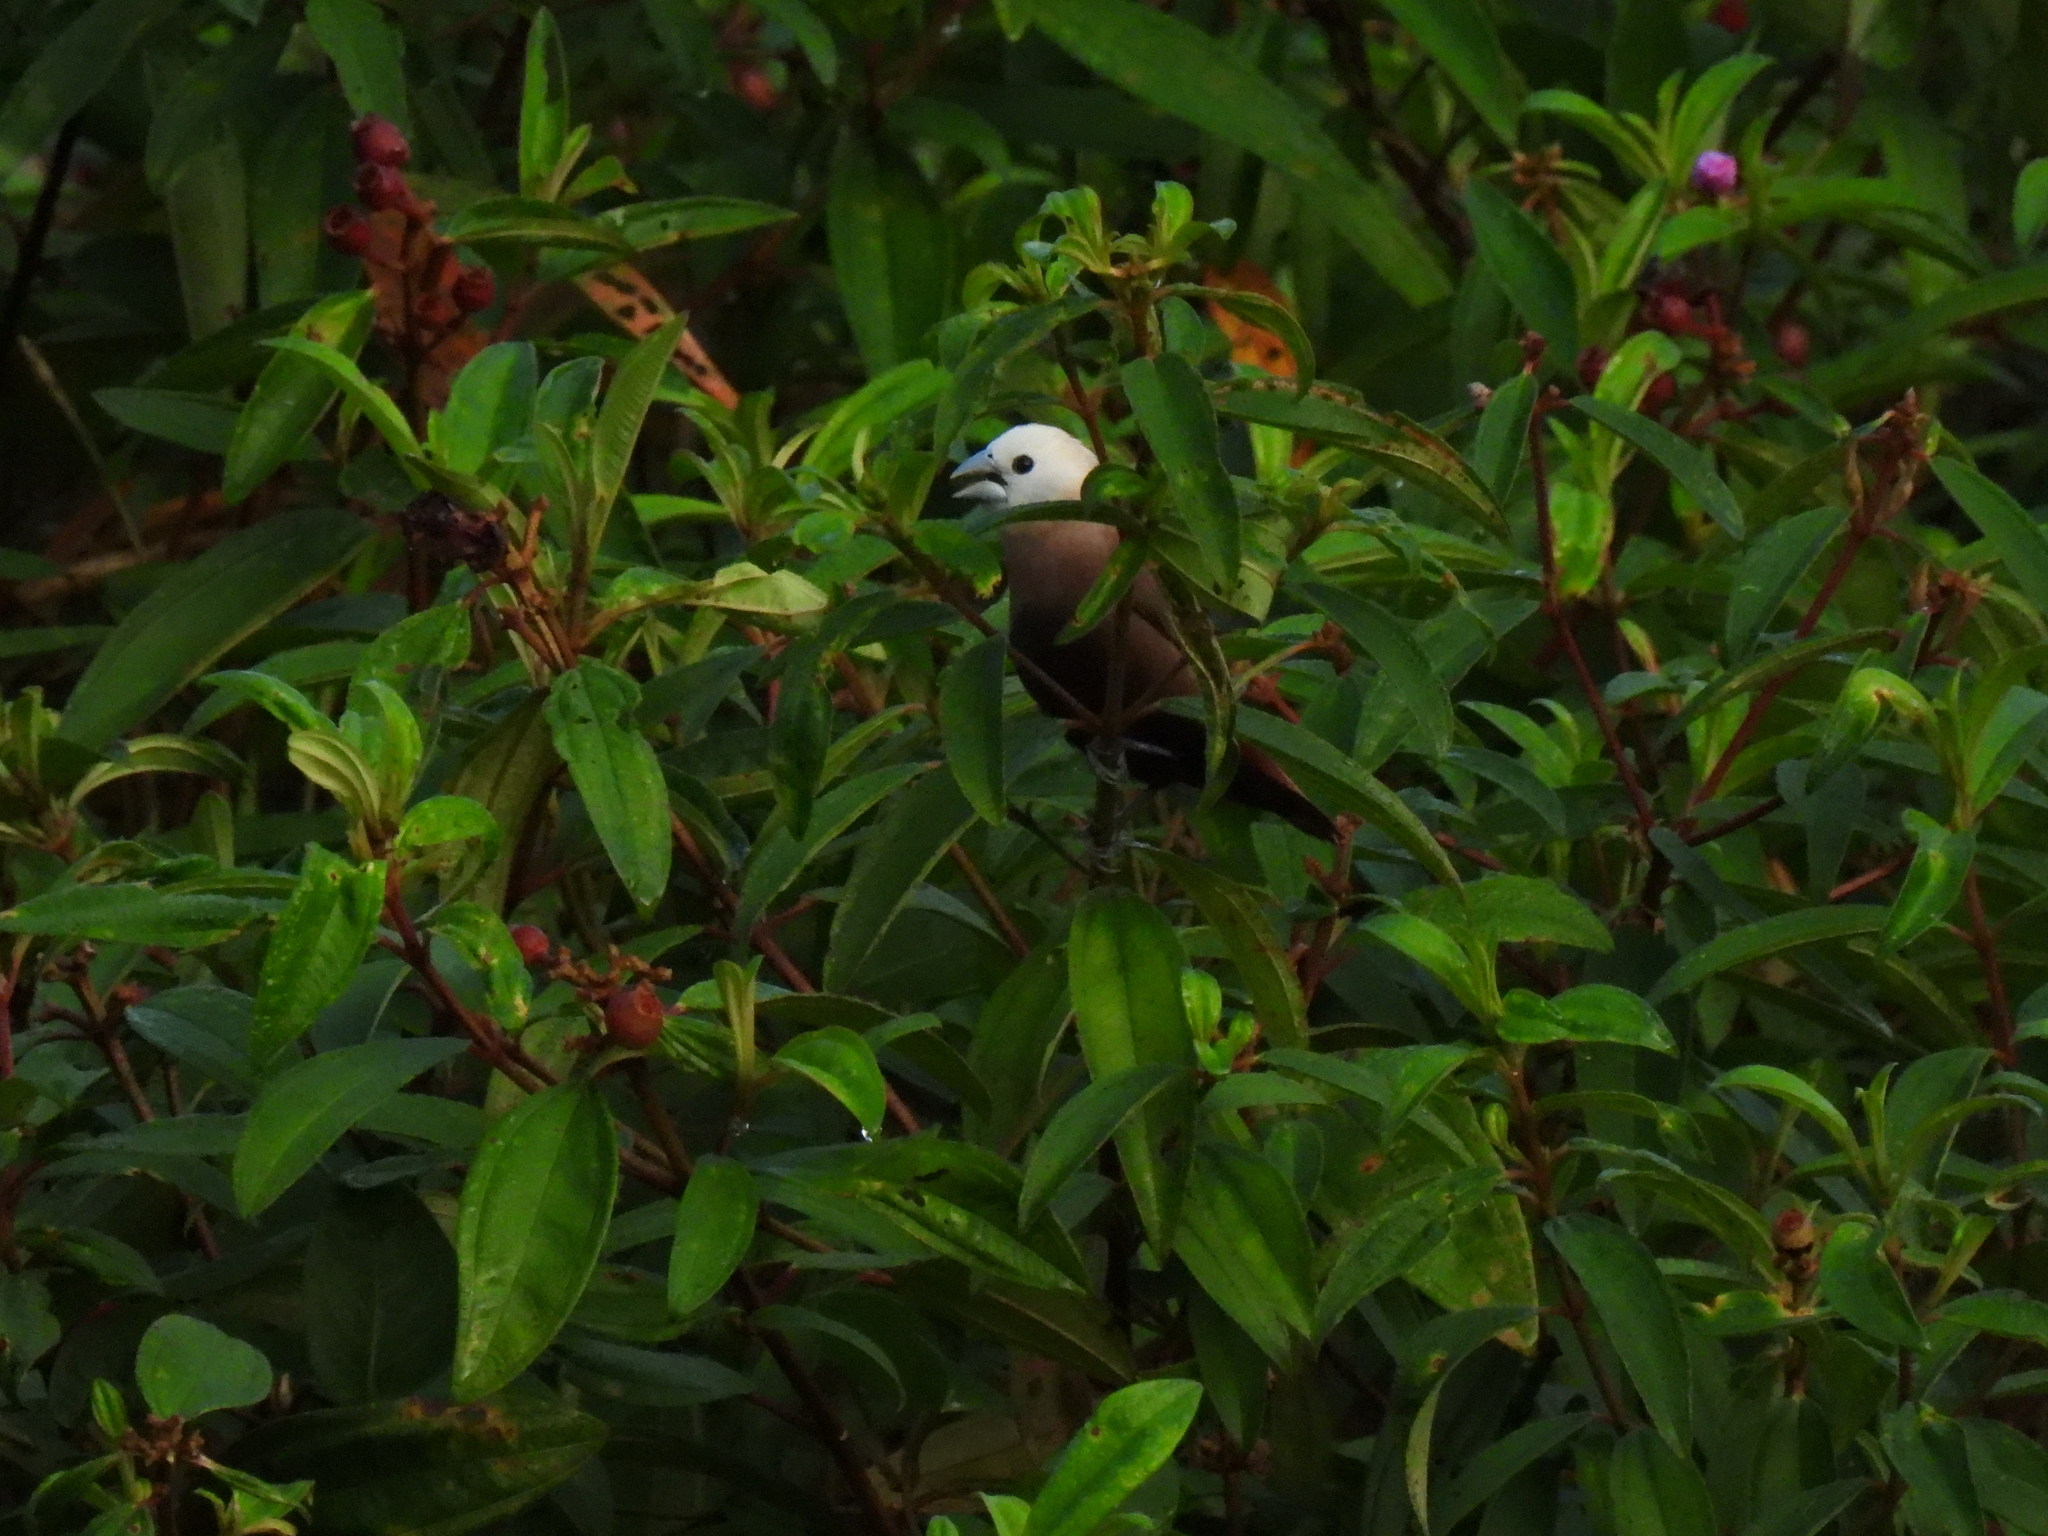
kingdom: Animalia
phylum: Chordata
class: Aves
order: Passeriformes
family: Estrildidae
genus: Lonchura
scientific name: Lonchura maja
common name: White-headed munia
